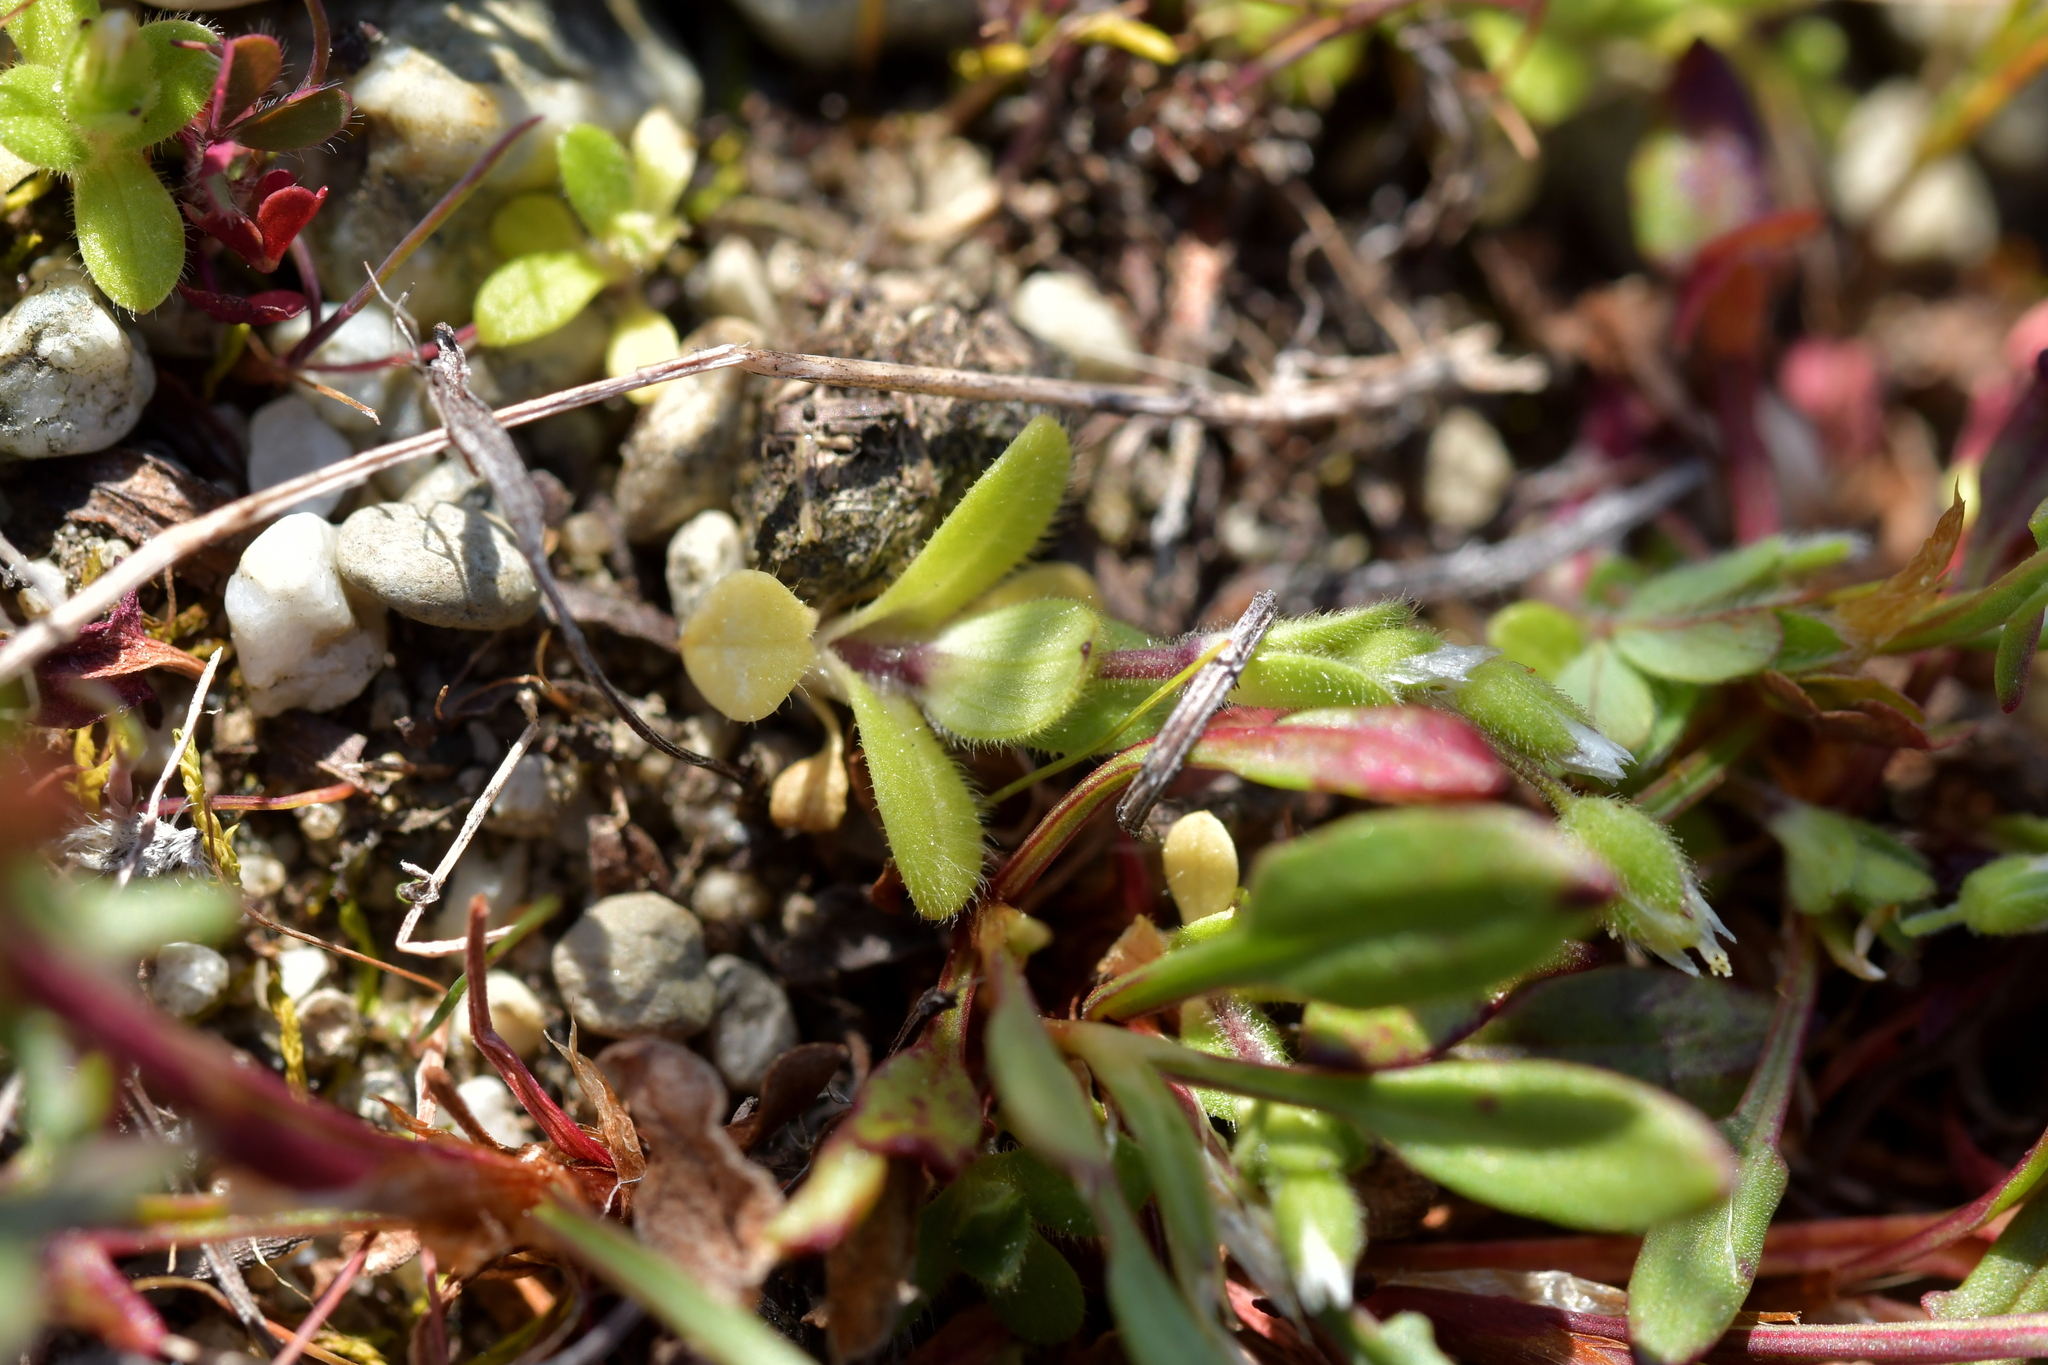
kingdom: Plantae
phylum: Tracheophyta
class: Magnoliopsida
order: Caryophyllales
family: Caryophyllaceae
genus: Arenaria
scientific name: Arenaria serpyllifolia
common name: Thyme-leaved sandwort
